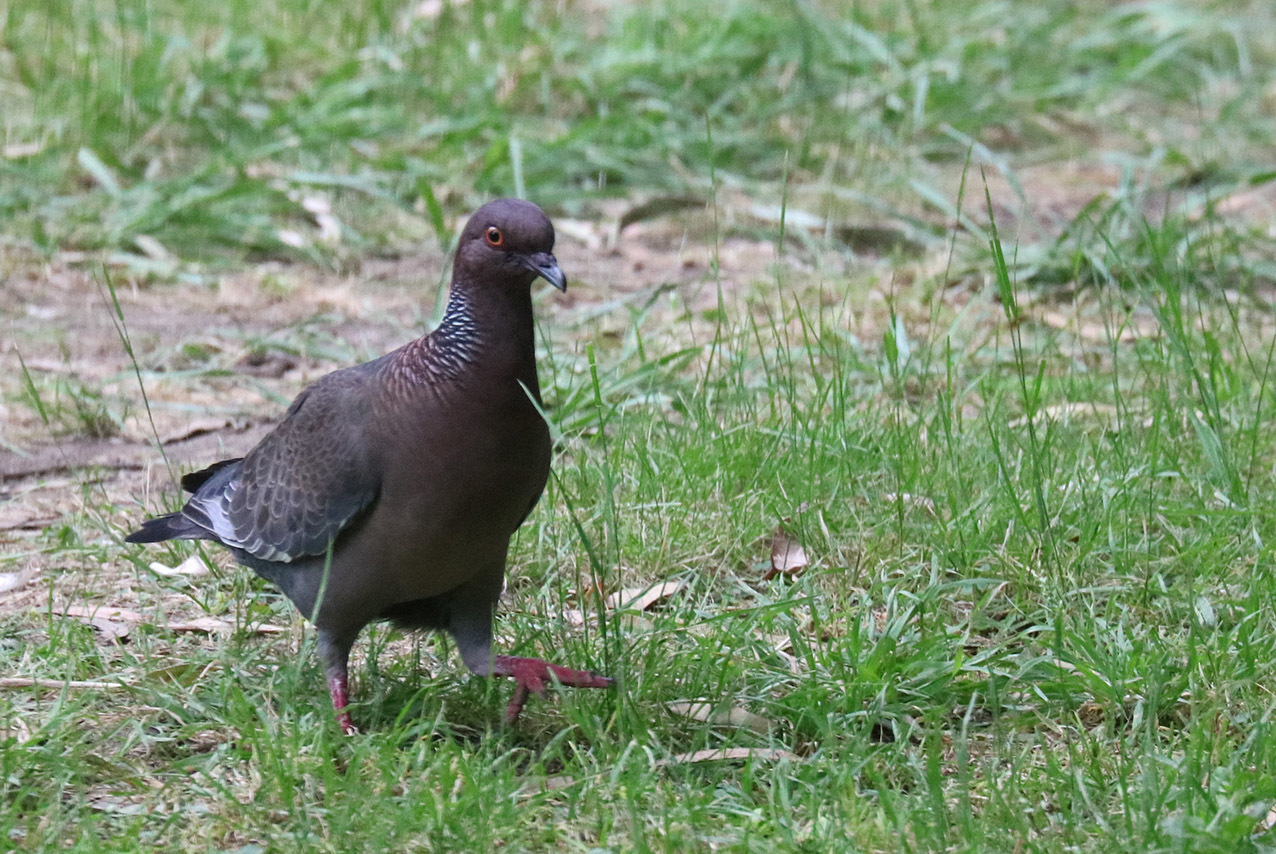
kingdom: Animalia
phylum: Chordata
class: Aves
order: Columbiformes
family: Columbidae
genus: Patagioenas
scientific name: Patagioenas picazuro
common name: Picazuro pigeon
